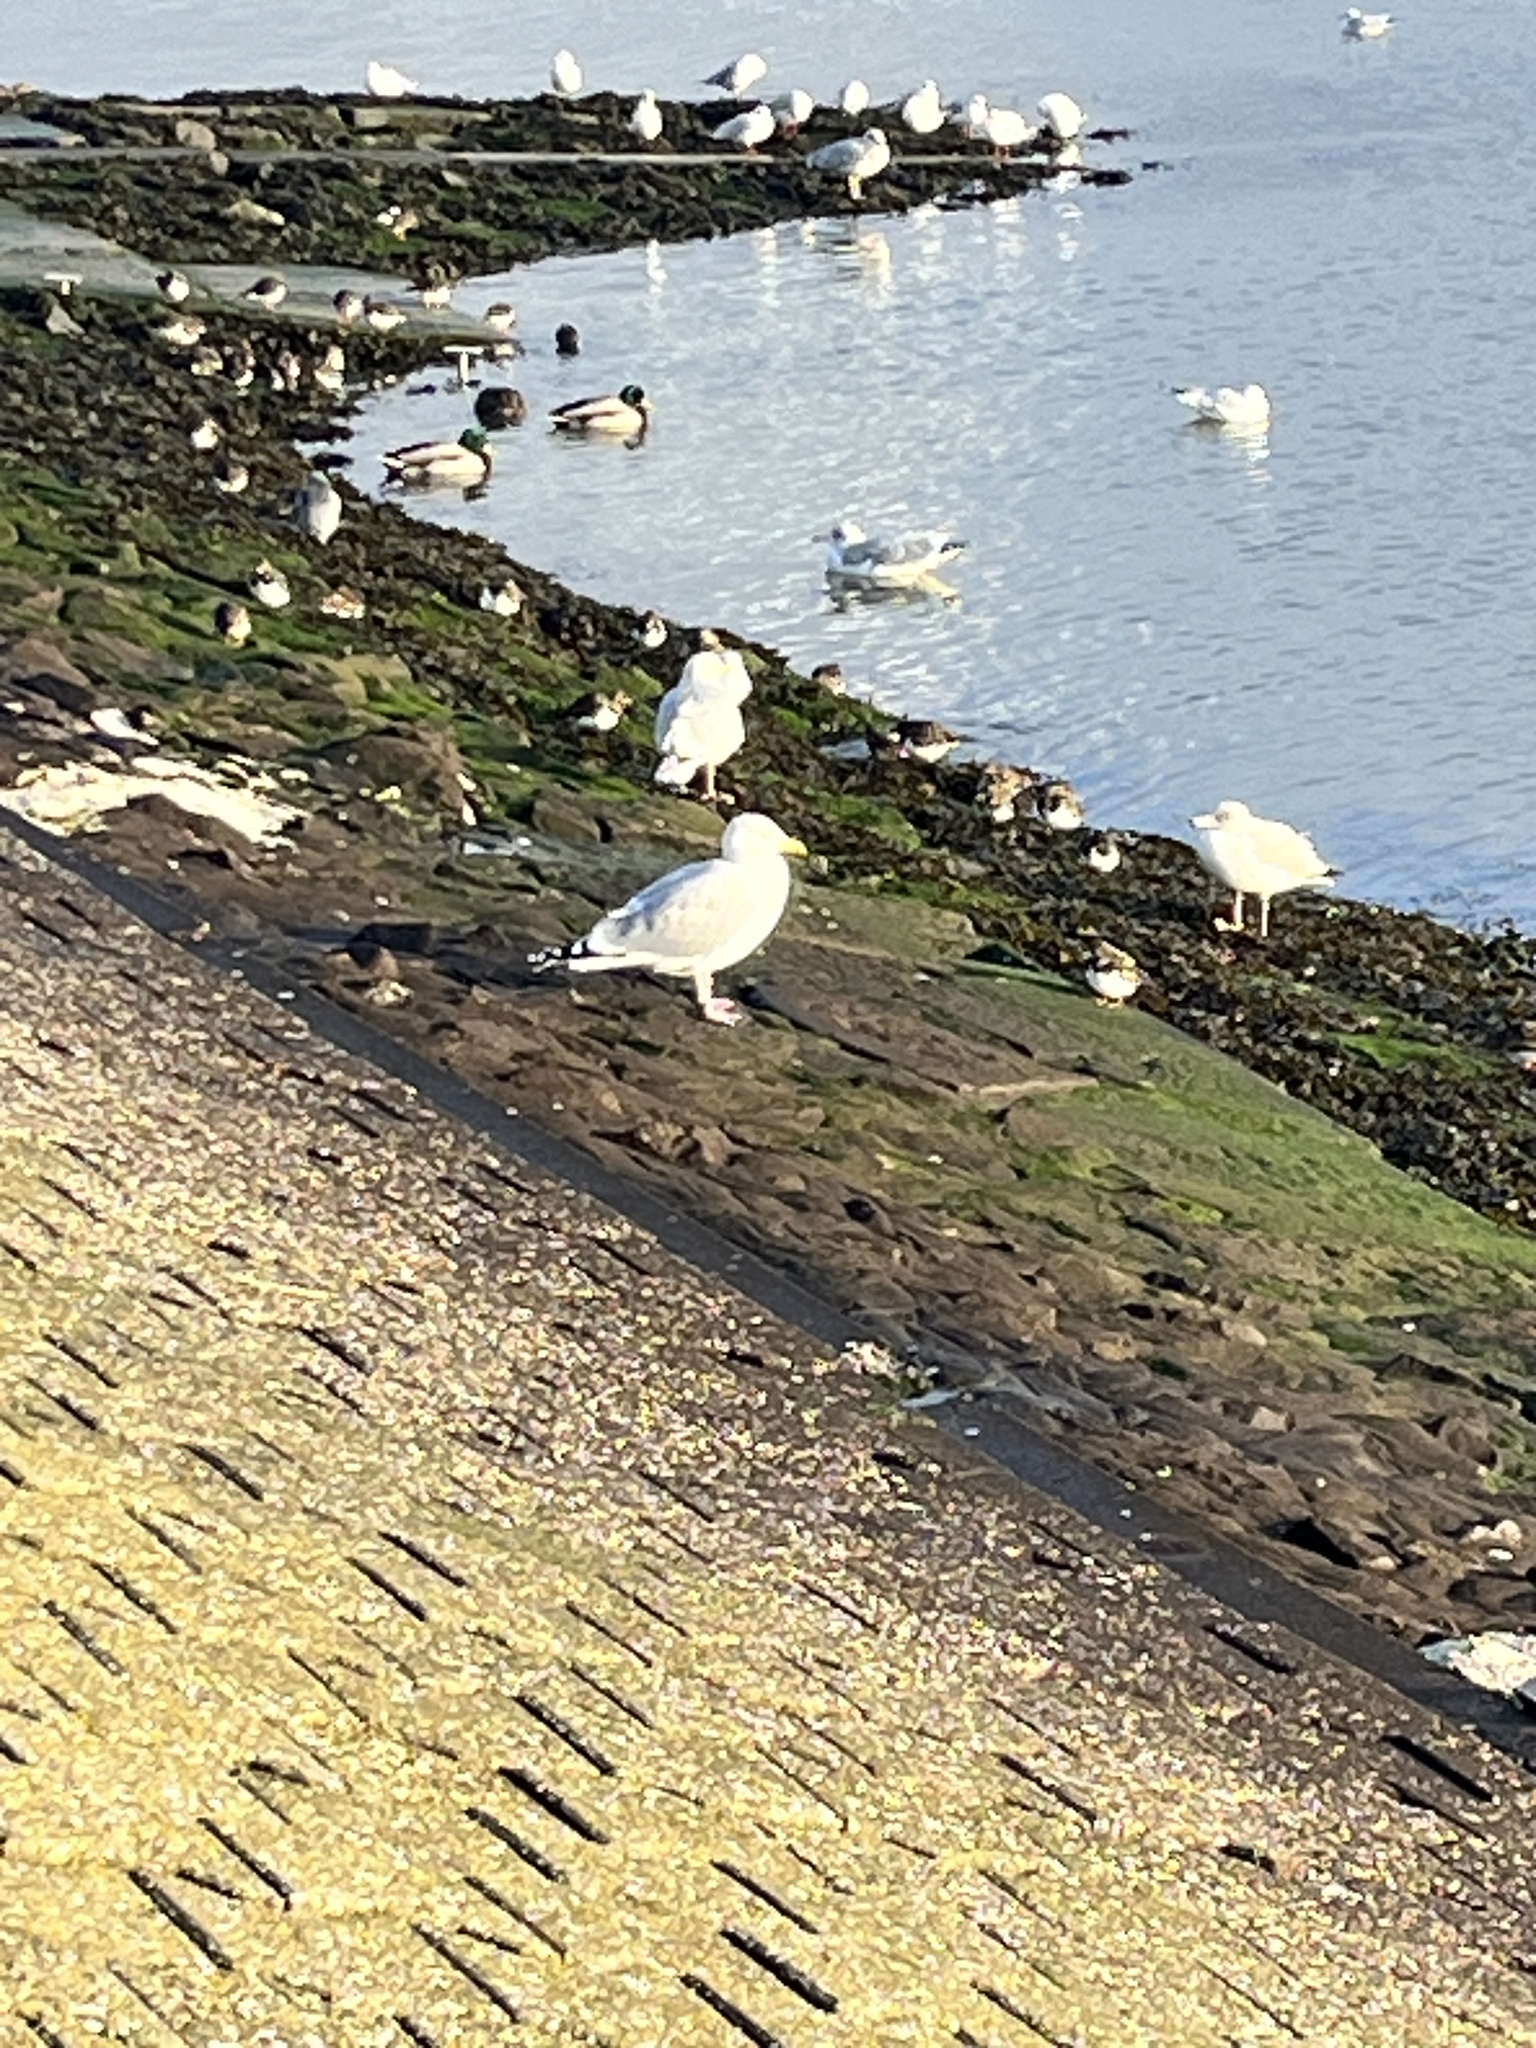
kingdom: Animalia
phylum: Chordata
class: Aves
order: Charadriiformes
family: Laridae
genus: Larus
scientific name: Larus argentatus
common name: Herring gull
